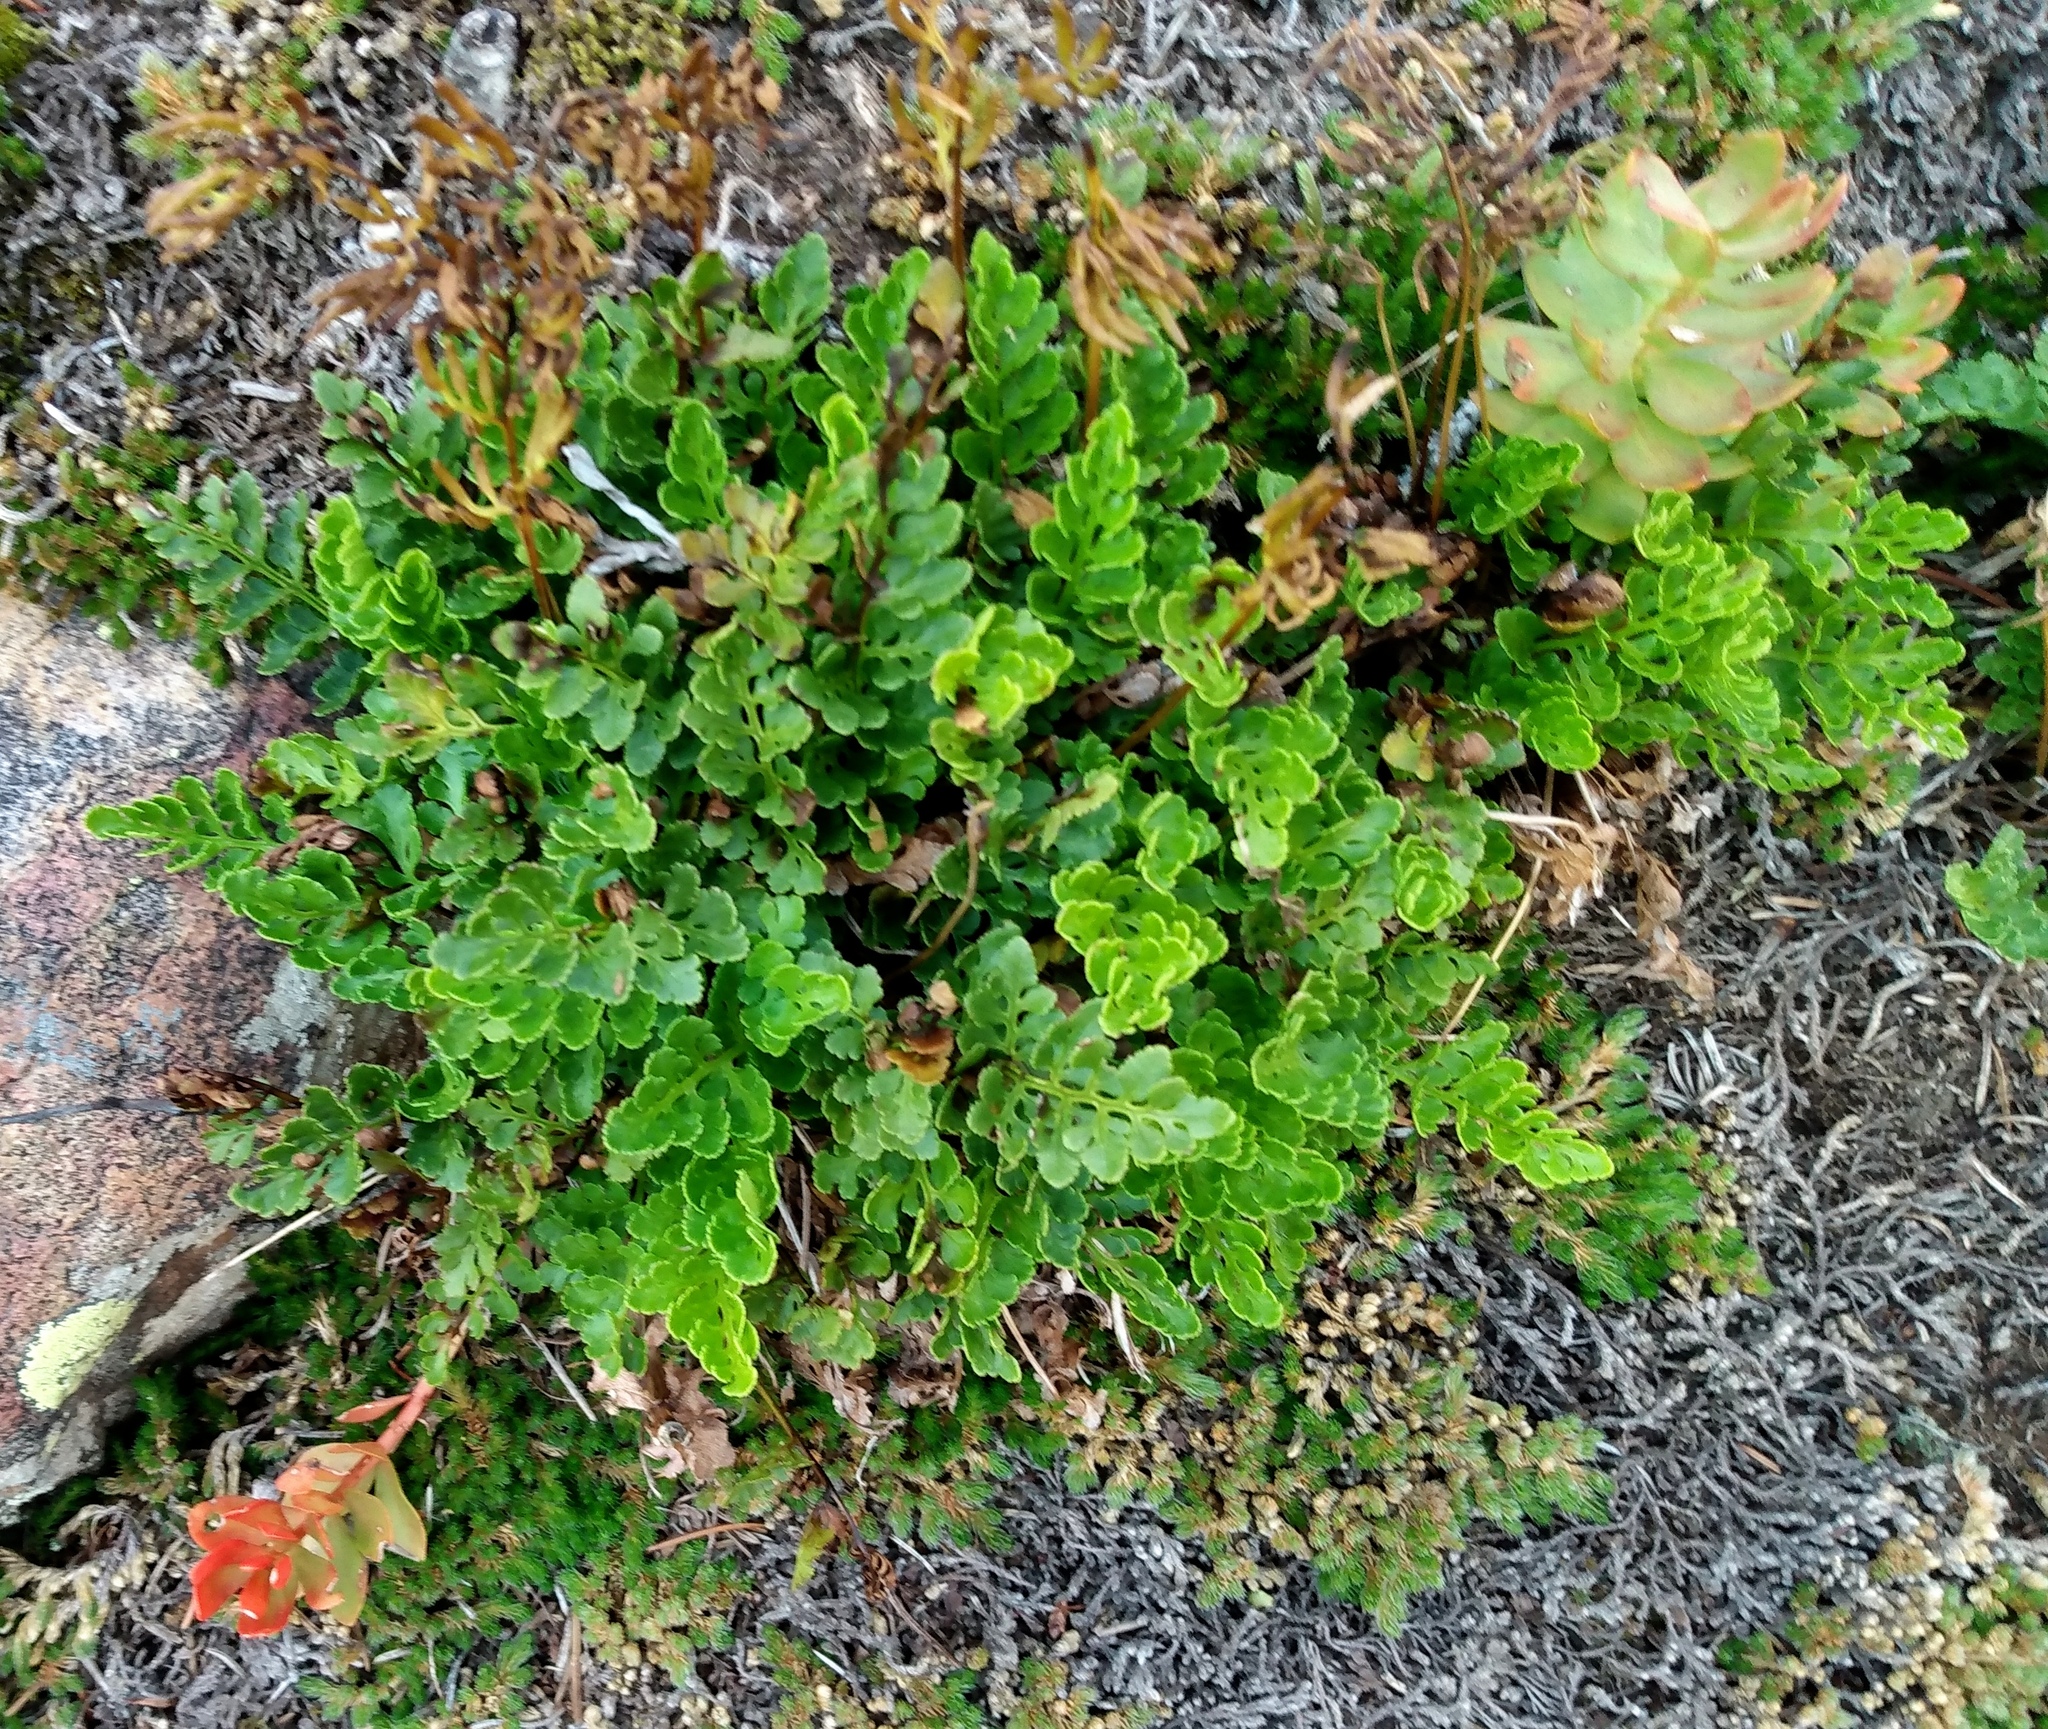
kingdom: Plantae
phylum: Tracheophyta
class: Polypodiopsida
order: Polypodiales
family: Pteridaceae
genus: Cryptogramma
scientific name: Cryptogramma acrostichoides
